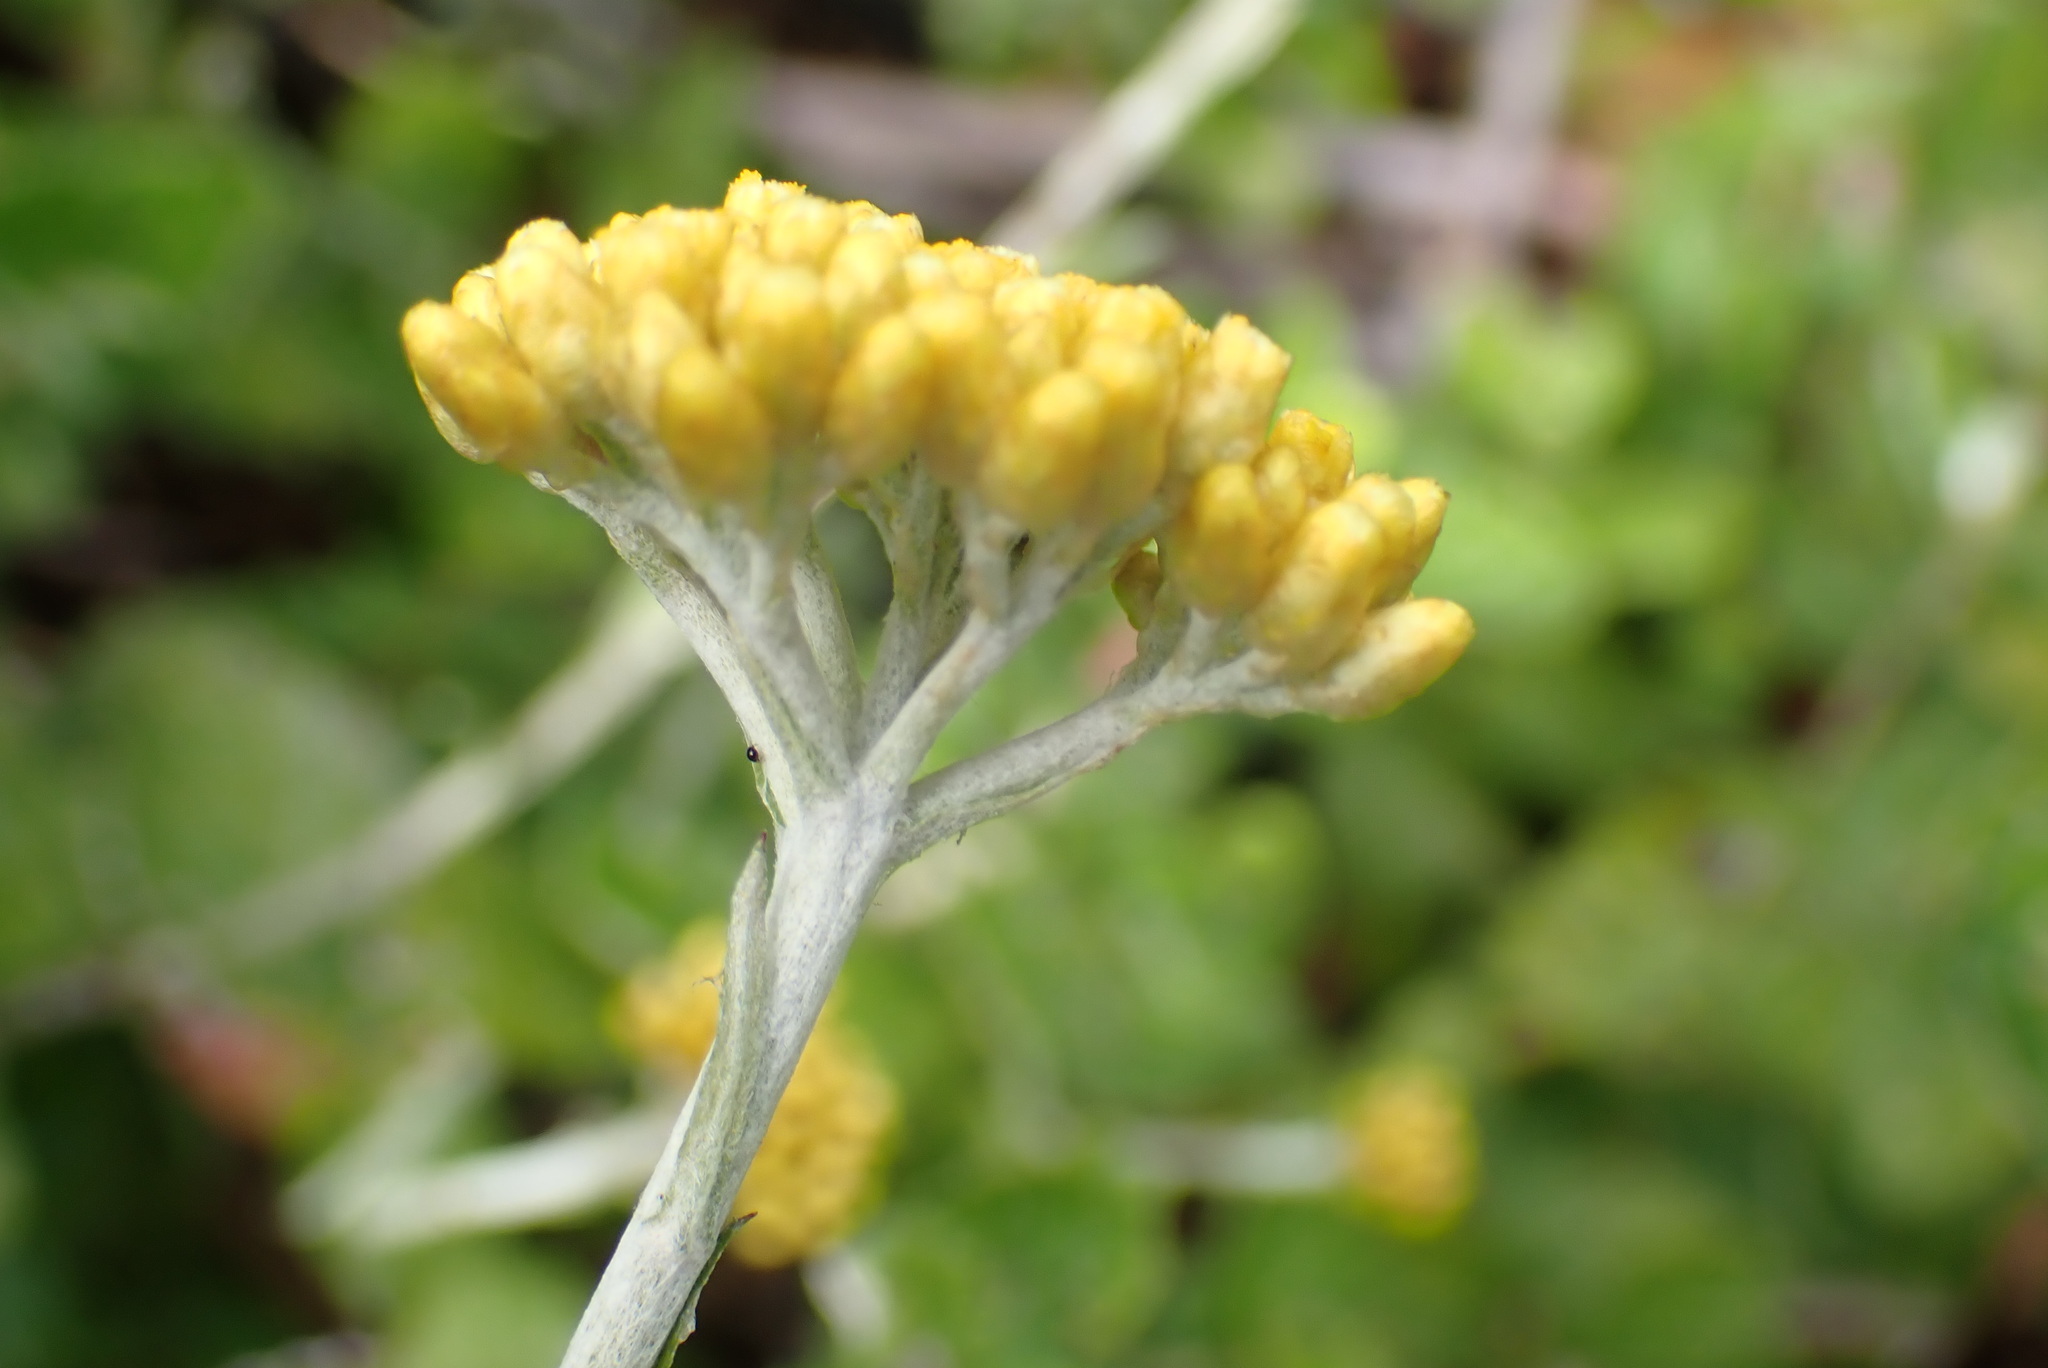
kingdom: Plantae
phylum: Tracheophyta
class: Magnoliopsida
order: Asterales
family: Asteraceae
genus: Helichrysum
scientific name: Helichrysum cymosum
